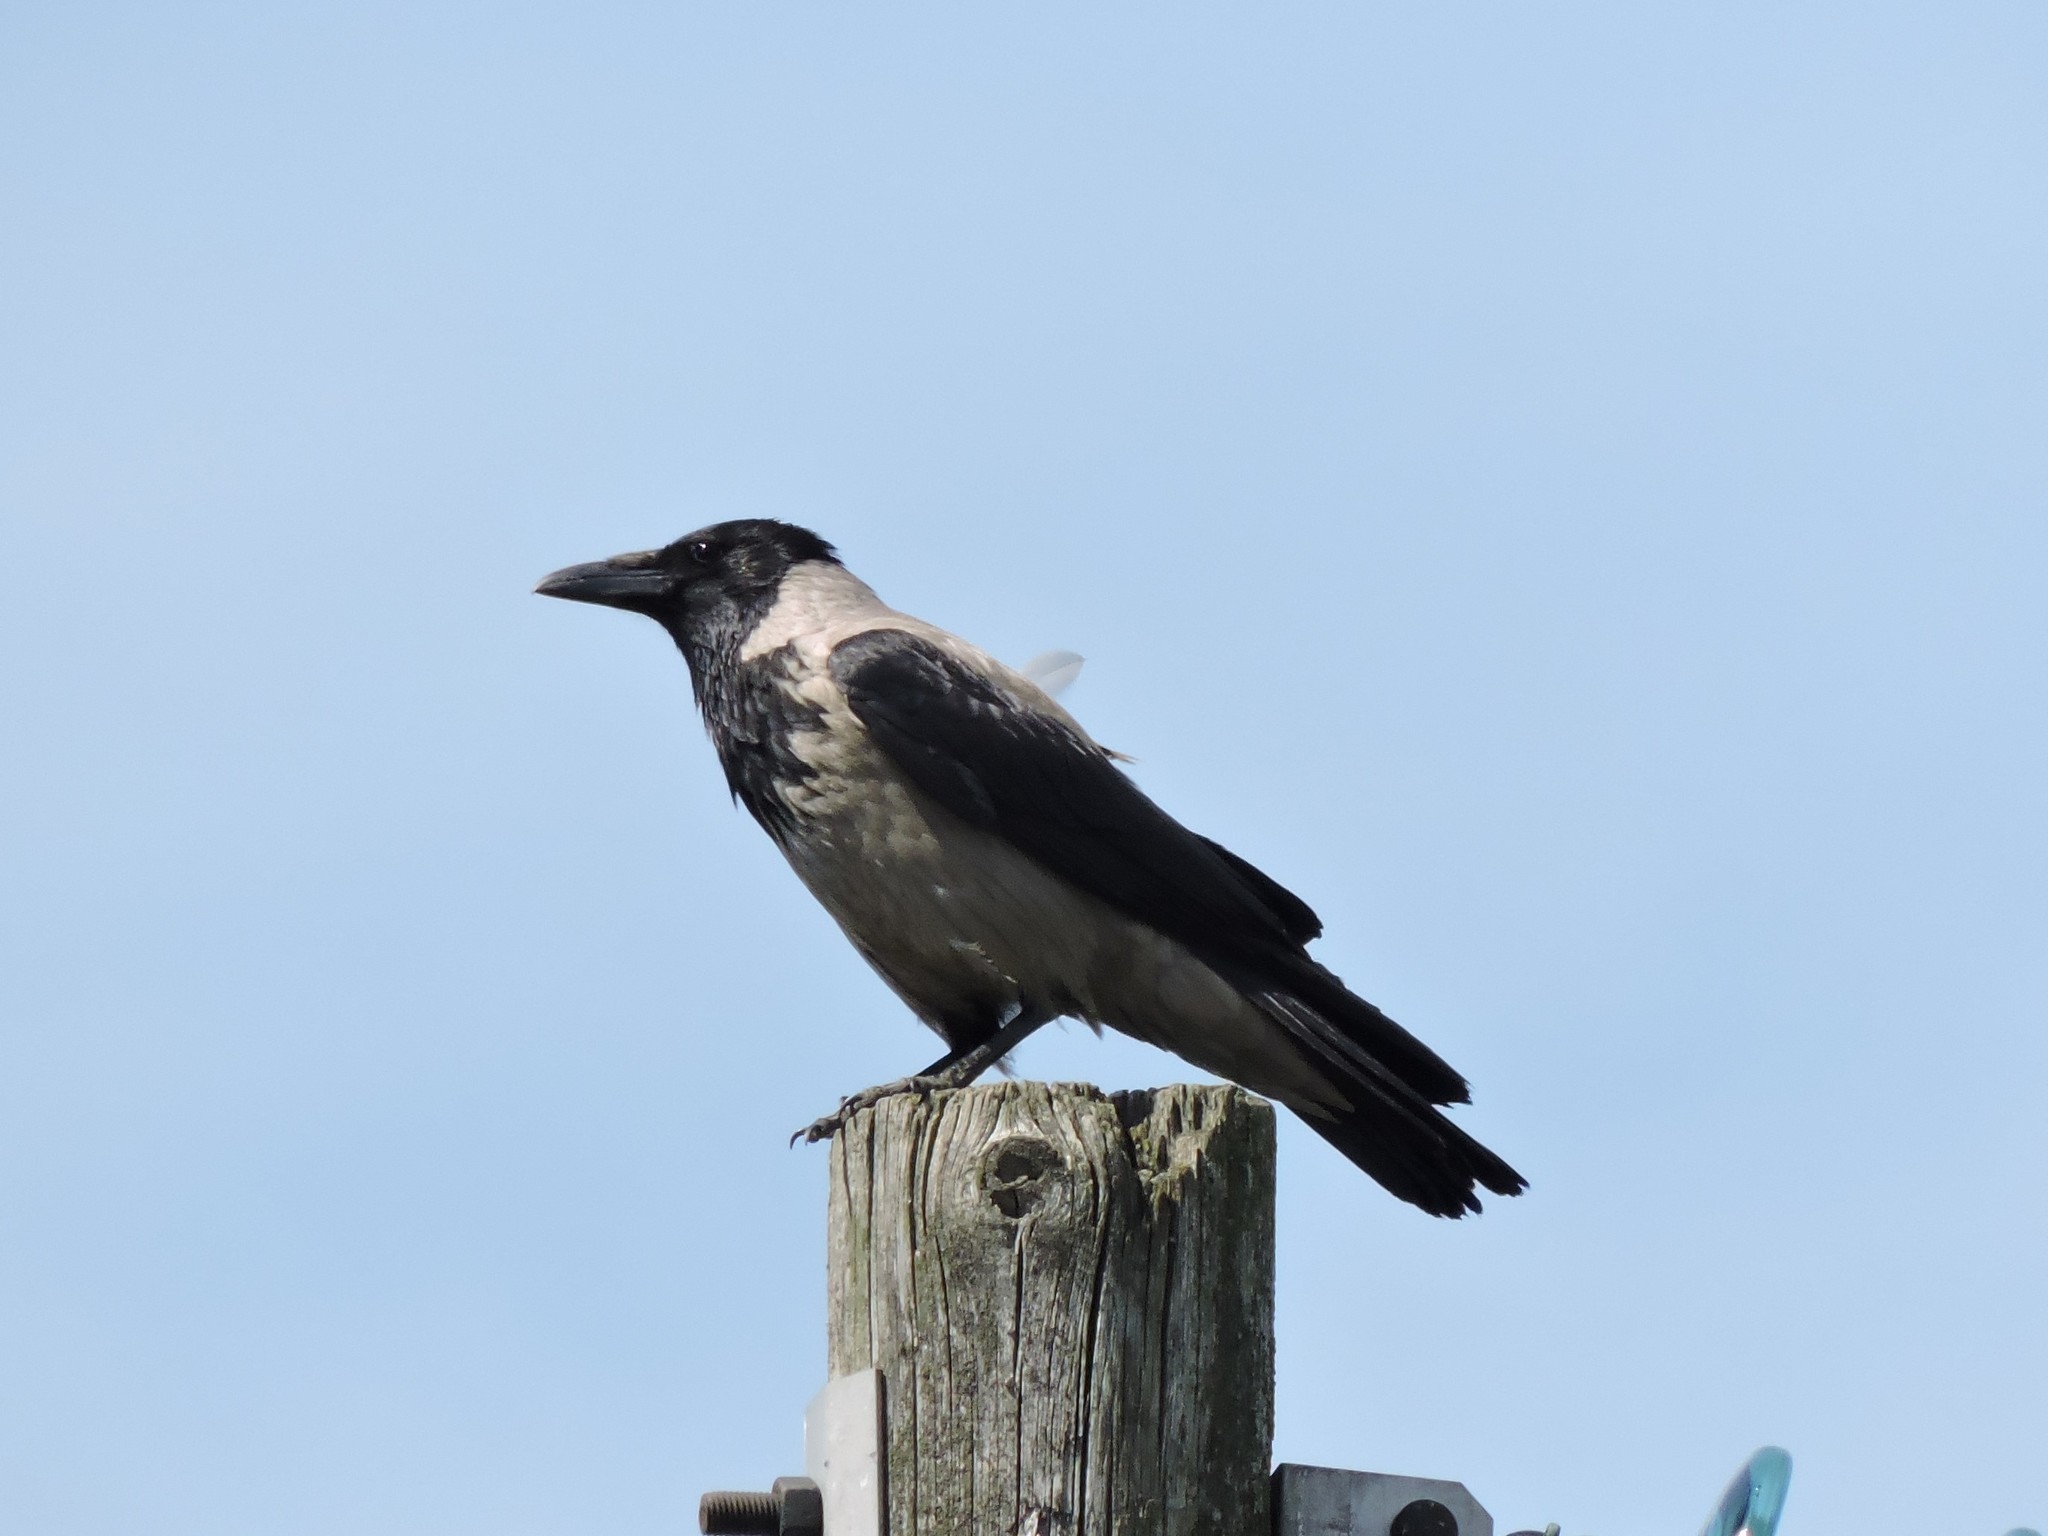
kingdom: Animalia
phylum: Chordata
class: Aves
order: Passeriformes
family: Corvidae
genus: Corvus
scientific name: Corvus cornix
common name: Hooded crow
